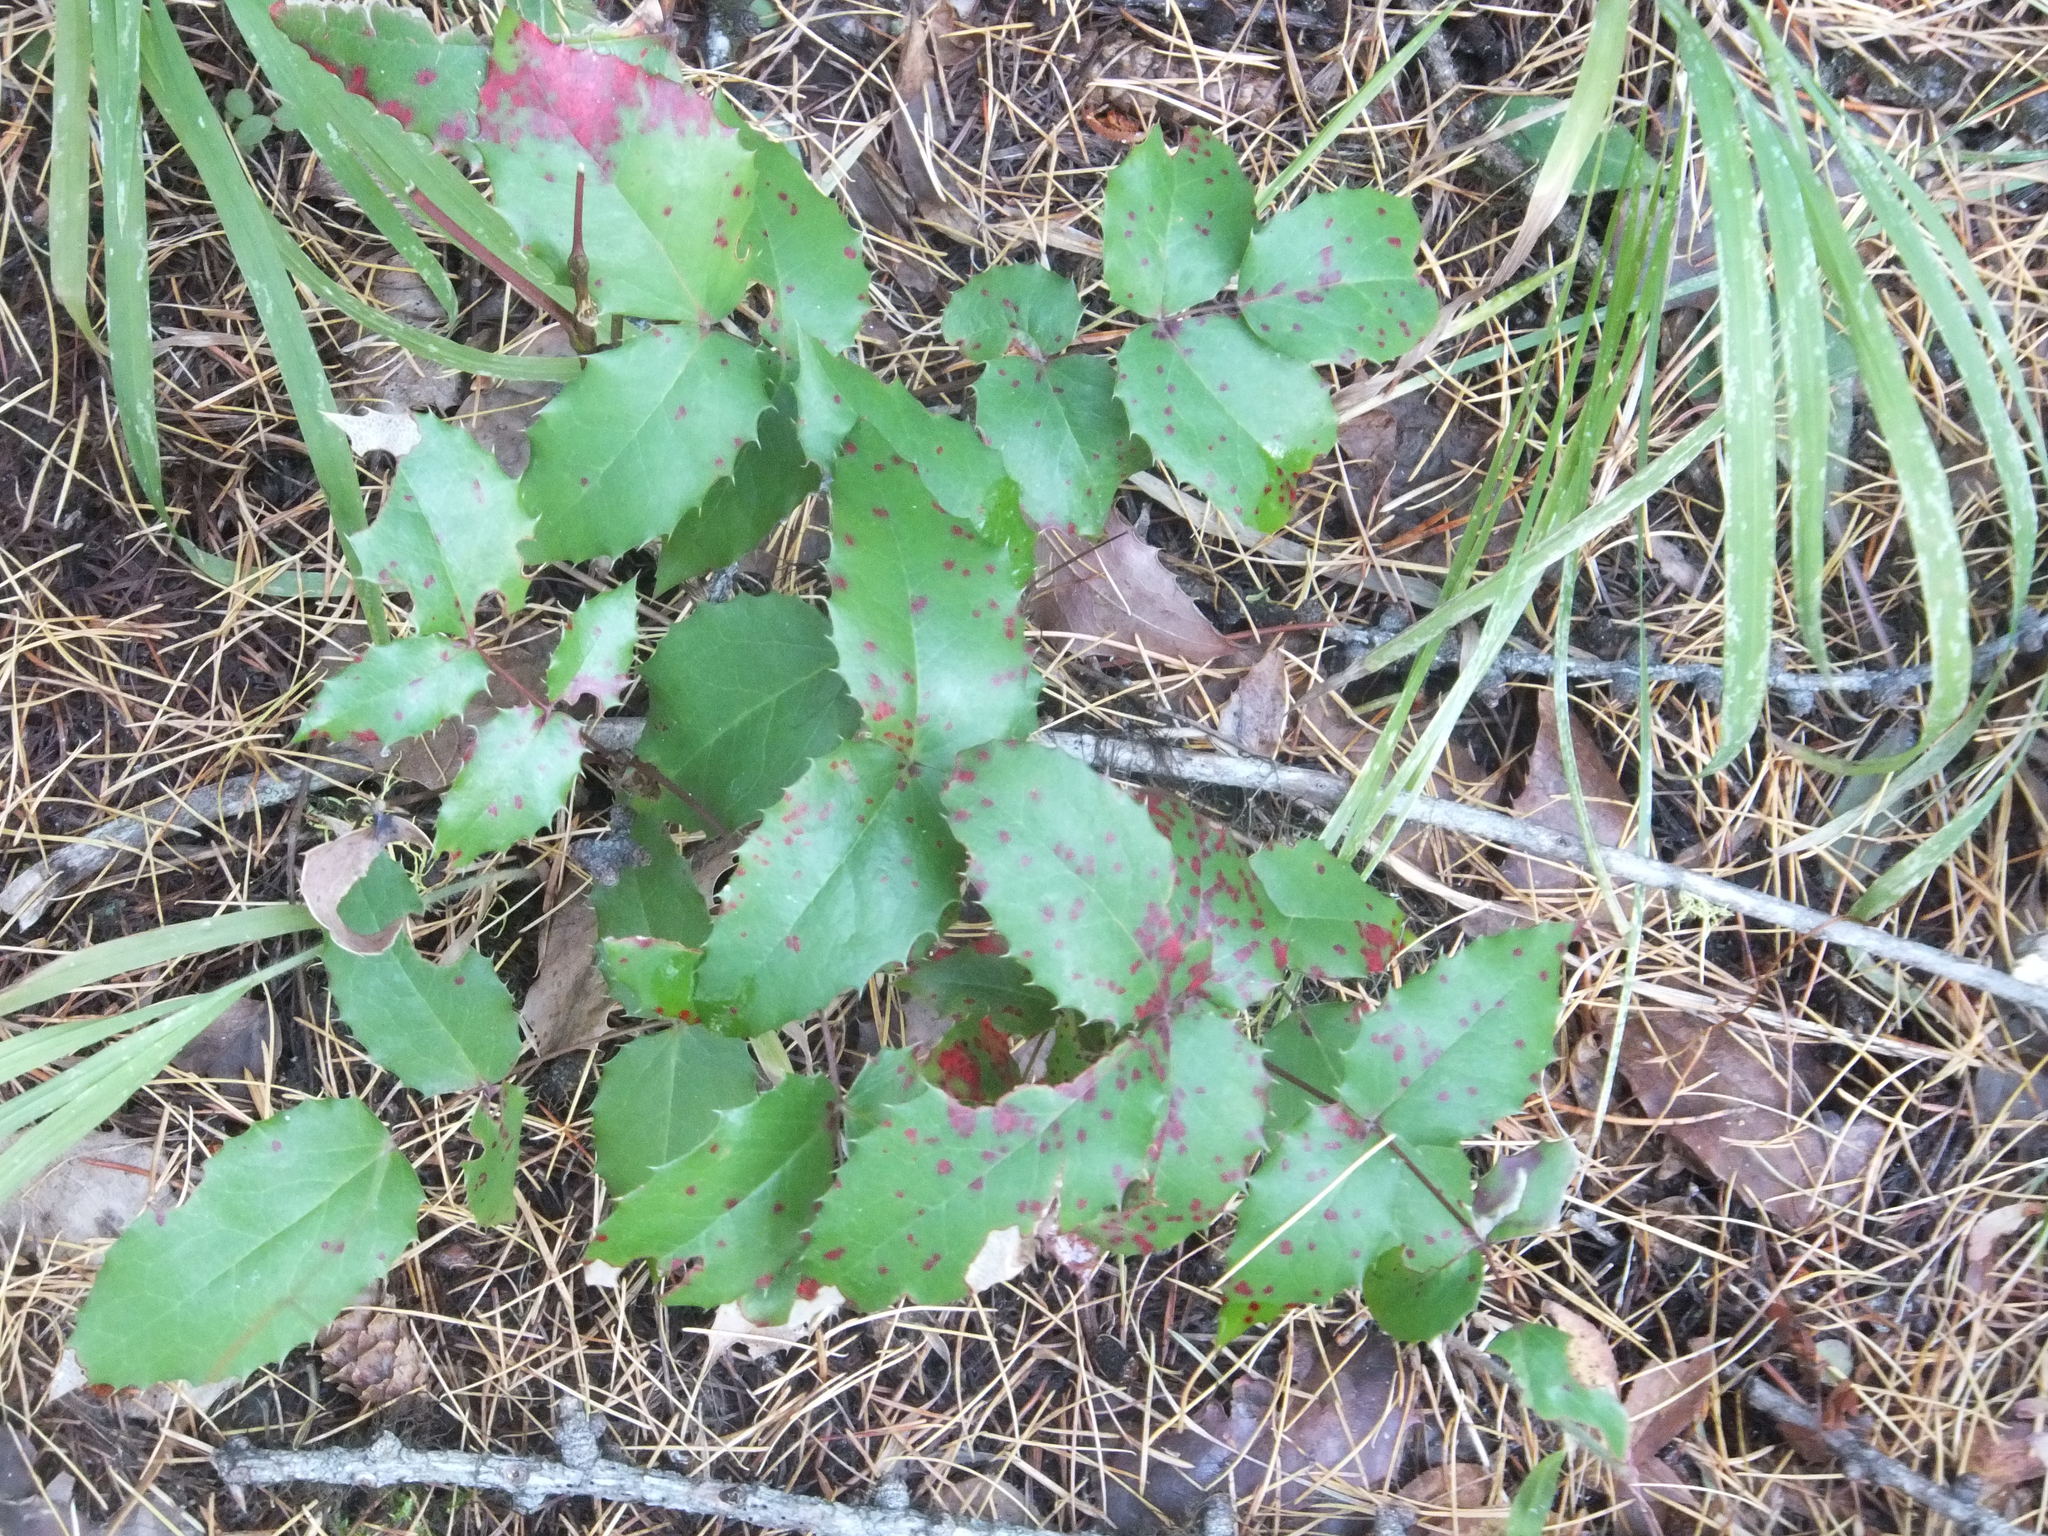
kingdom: Plantae
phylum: Tracheophyta
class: Magnoliopsida
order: Ranunculales
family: Berberidaceae
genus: Mahonia
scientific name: Mahonia repens
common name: Creeping oregon-grape
